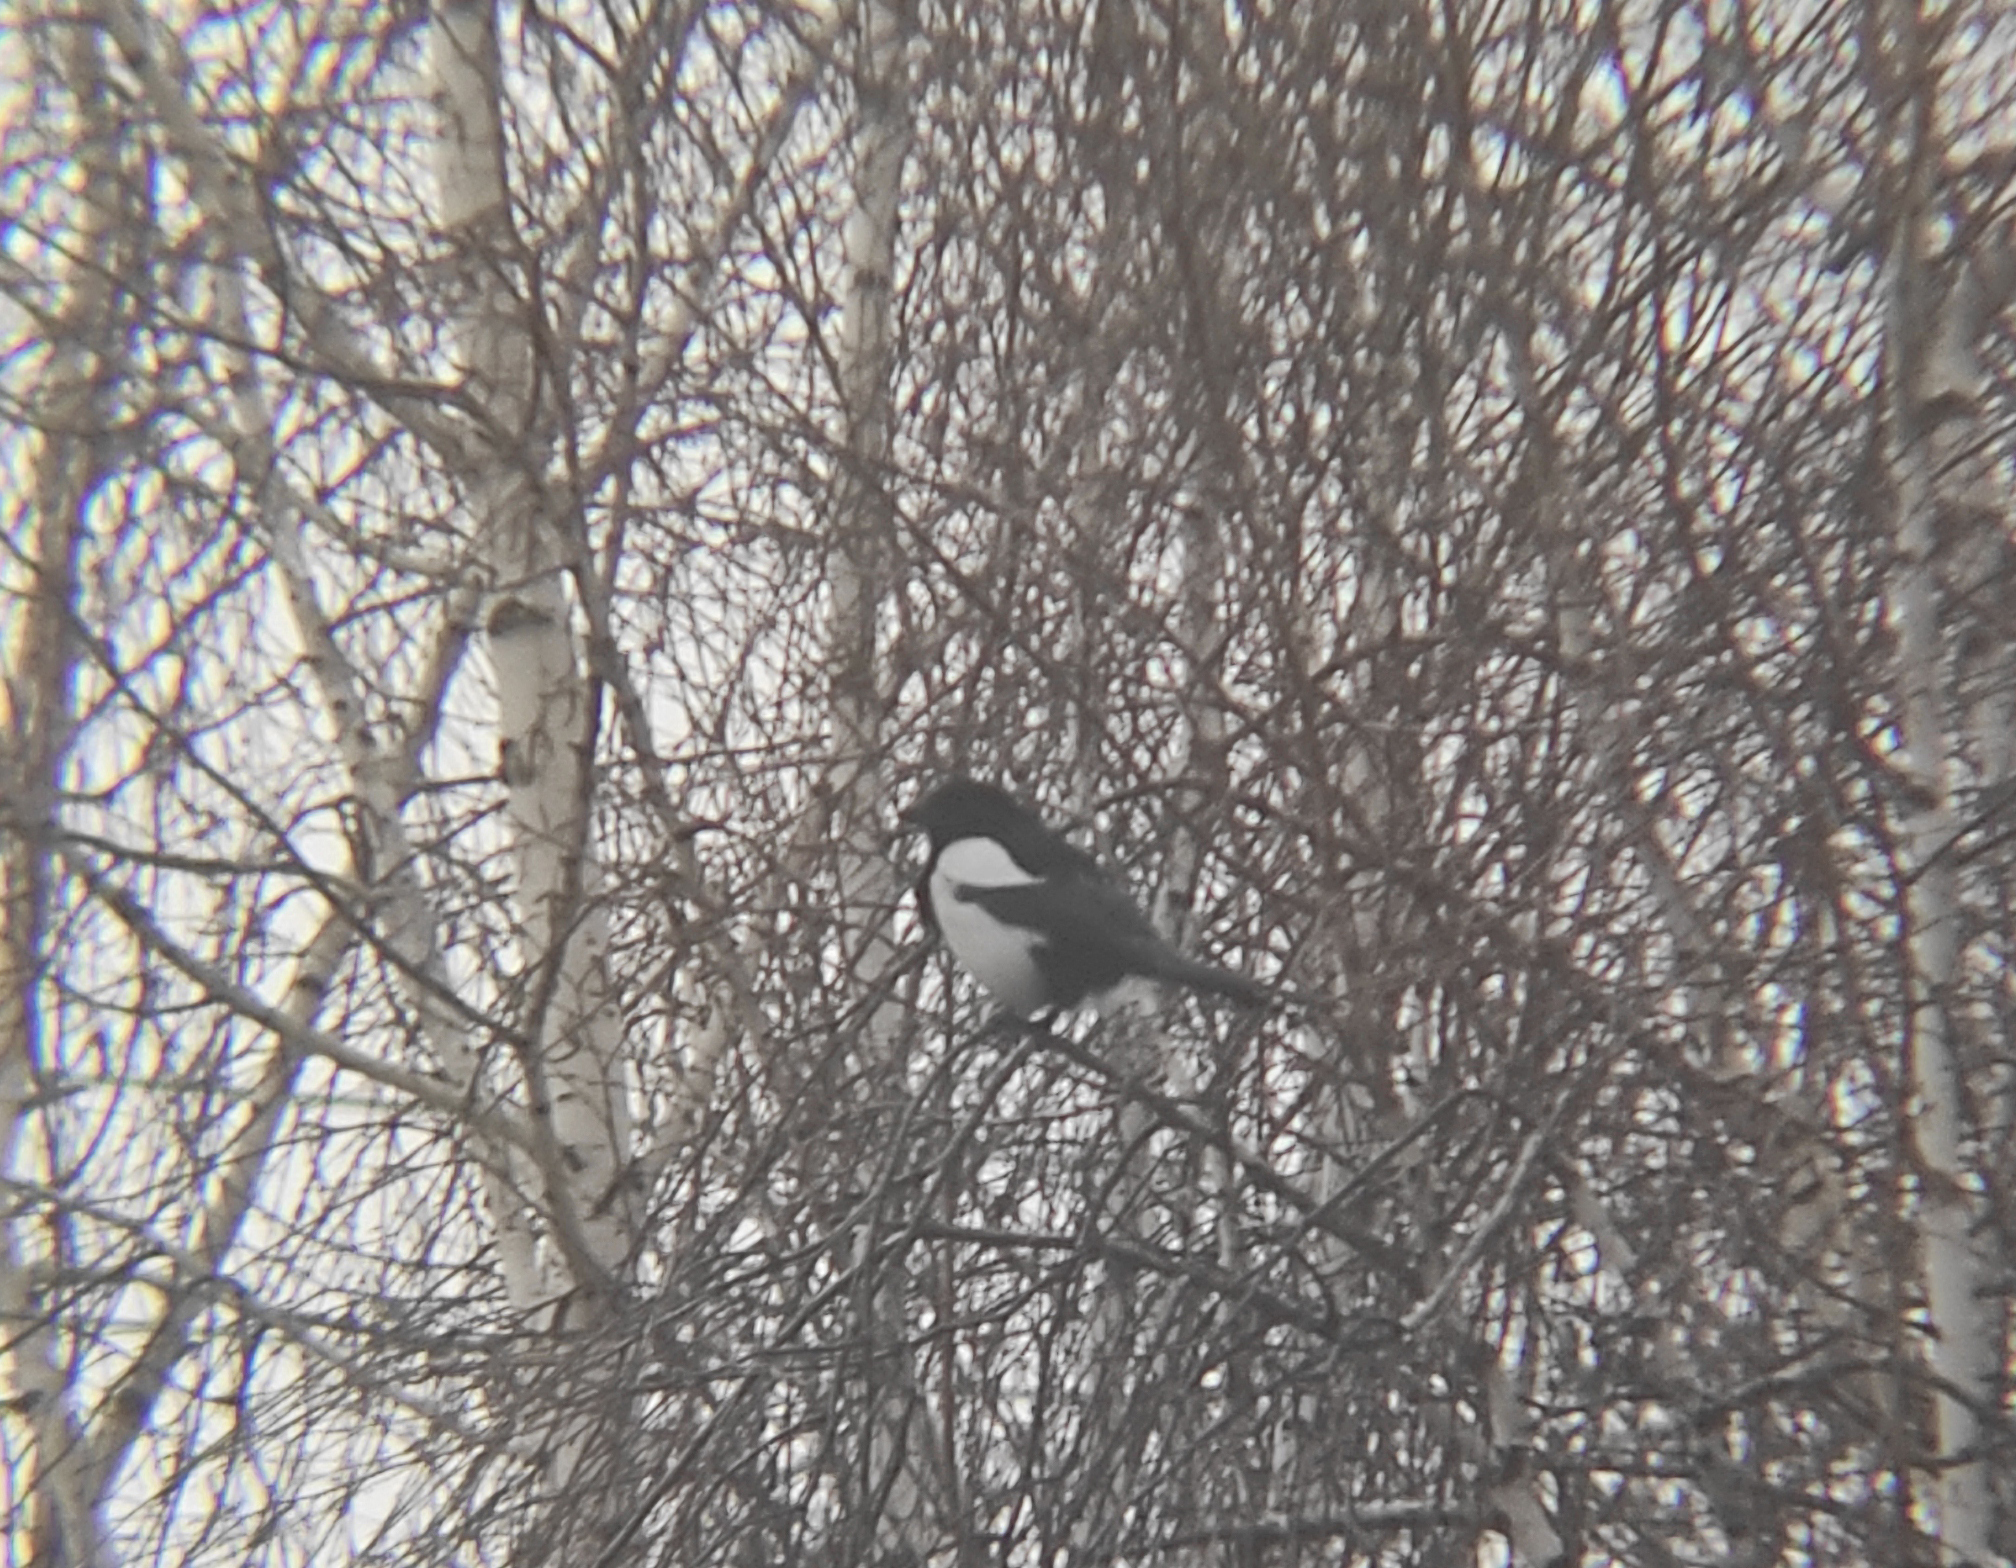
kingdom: Animalia
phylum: Chordata
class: Aves
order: Passeriformes
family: Corvidae
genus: Pica
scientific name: Pica pica
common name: Eurasian magpie
